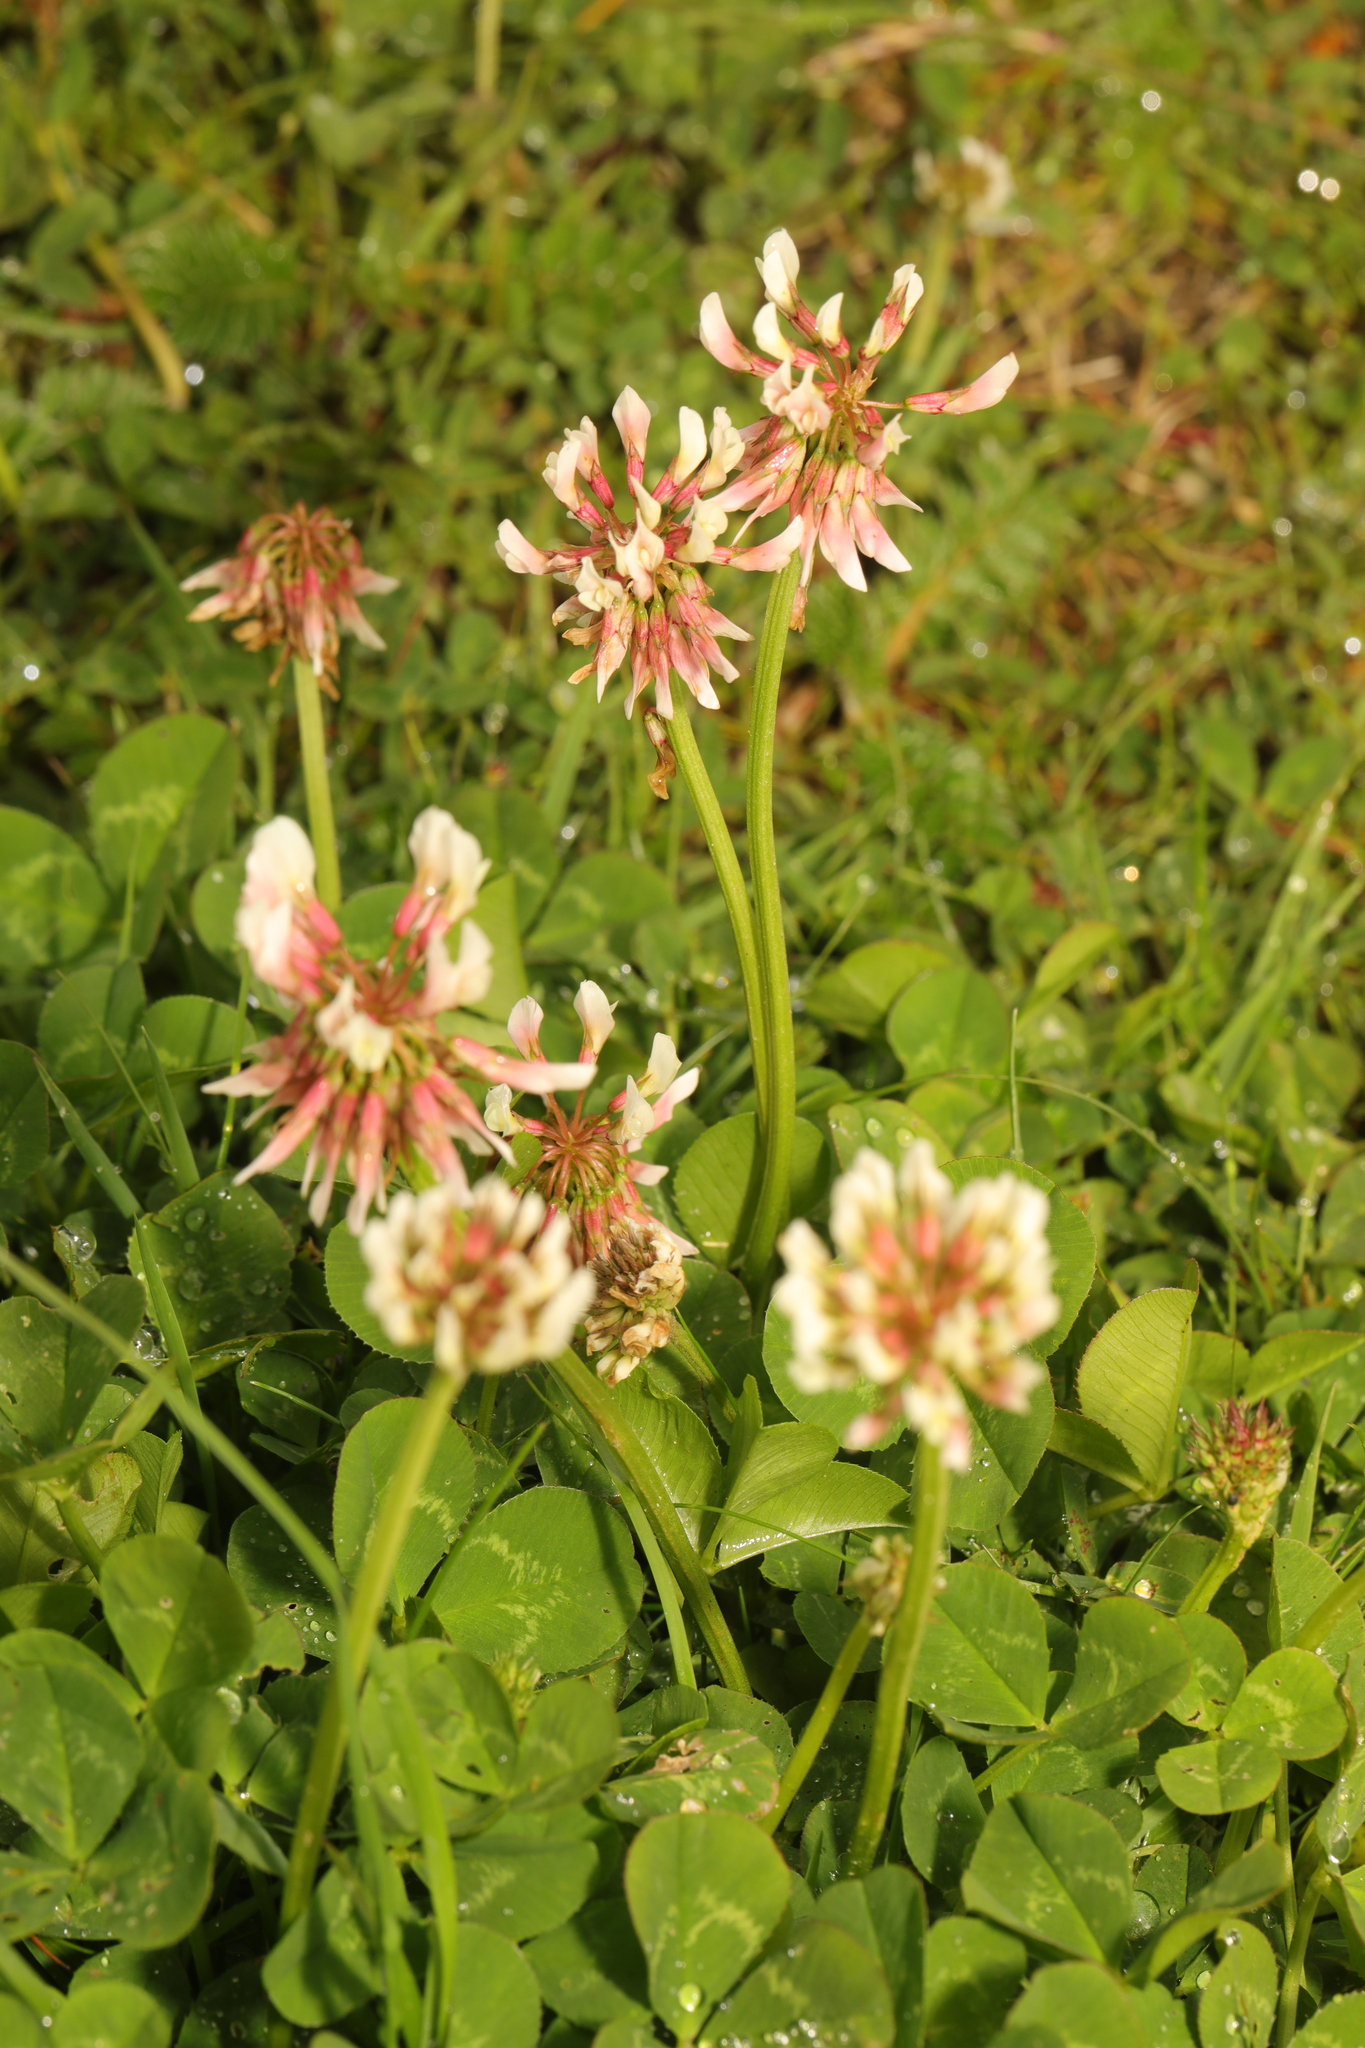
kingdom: Plantae
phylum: Tracheophyta
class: Magnoliopsida
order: Fabales
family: Fabaceae
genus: Trifolium
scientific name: Trifolium repens
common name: White clover
